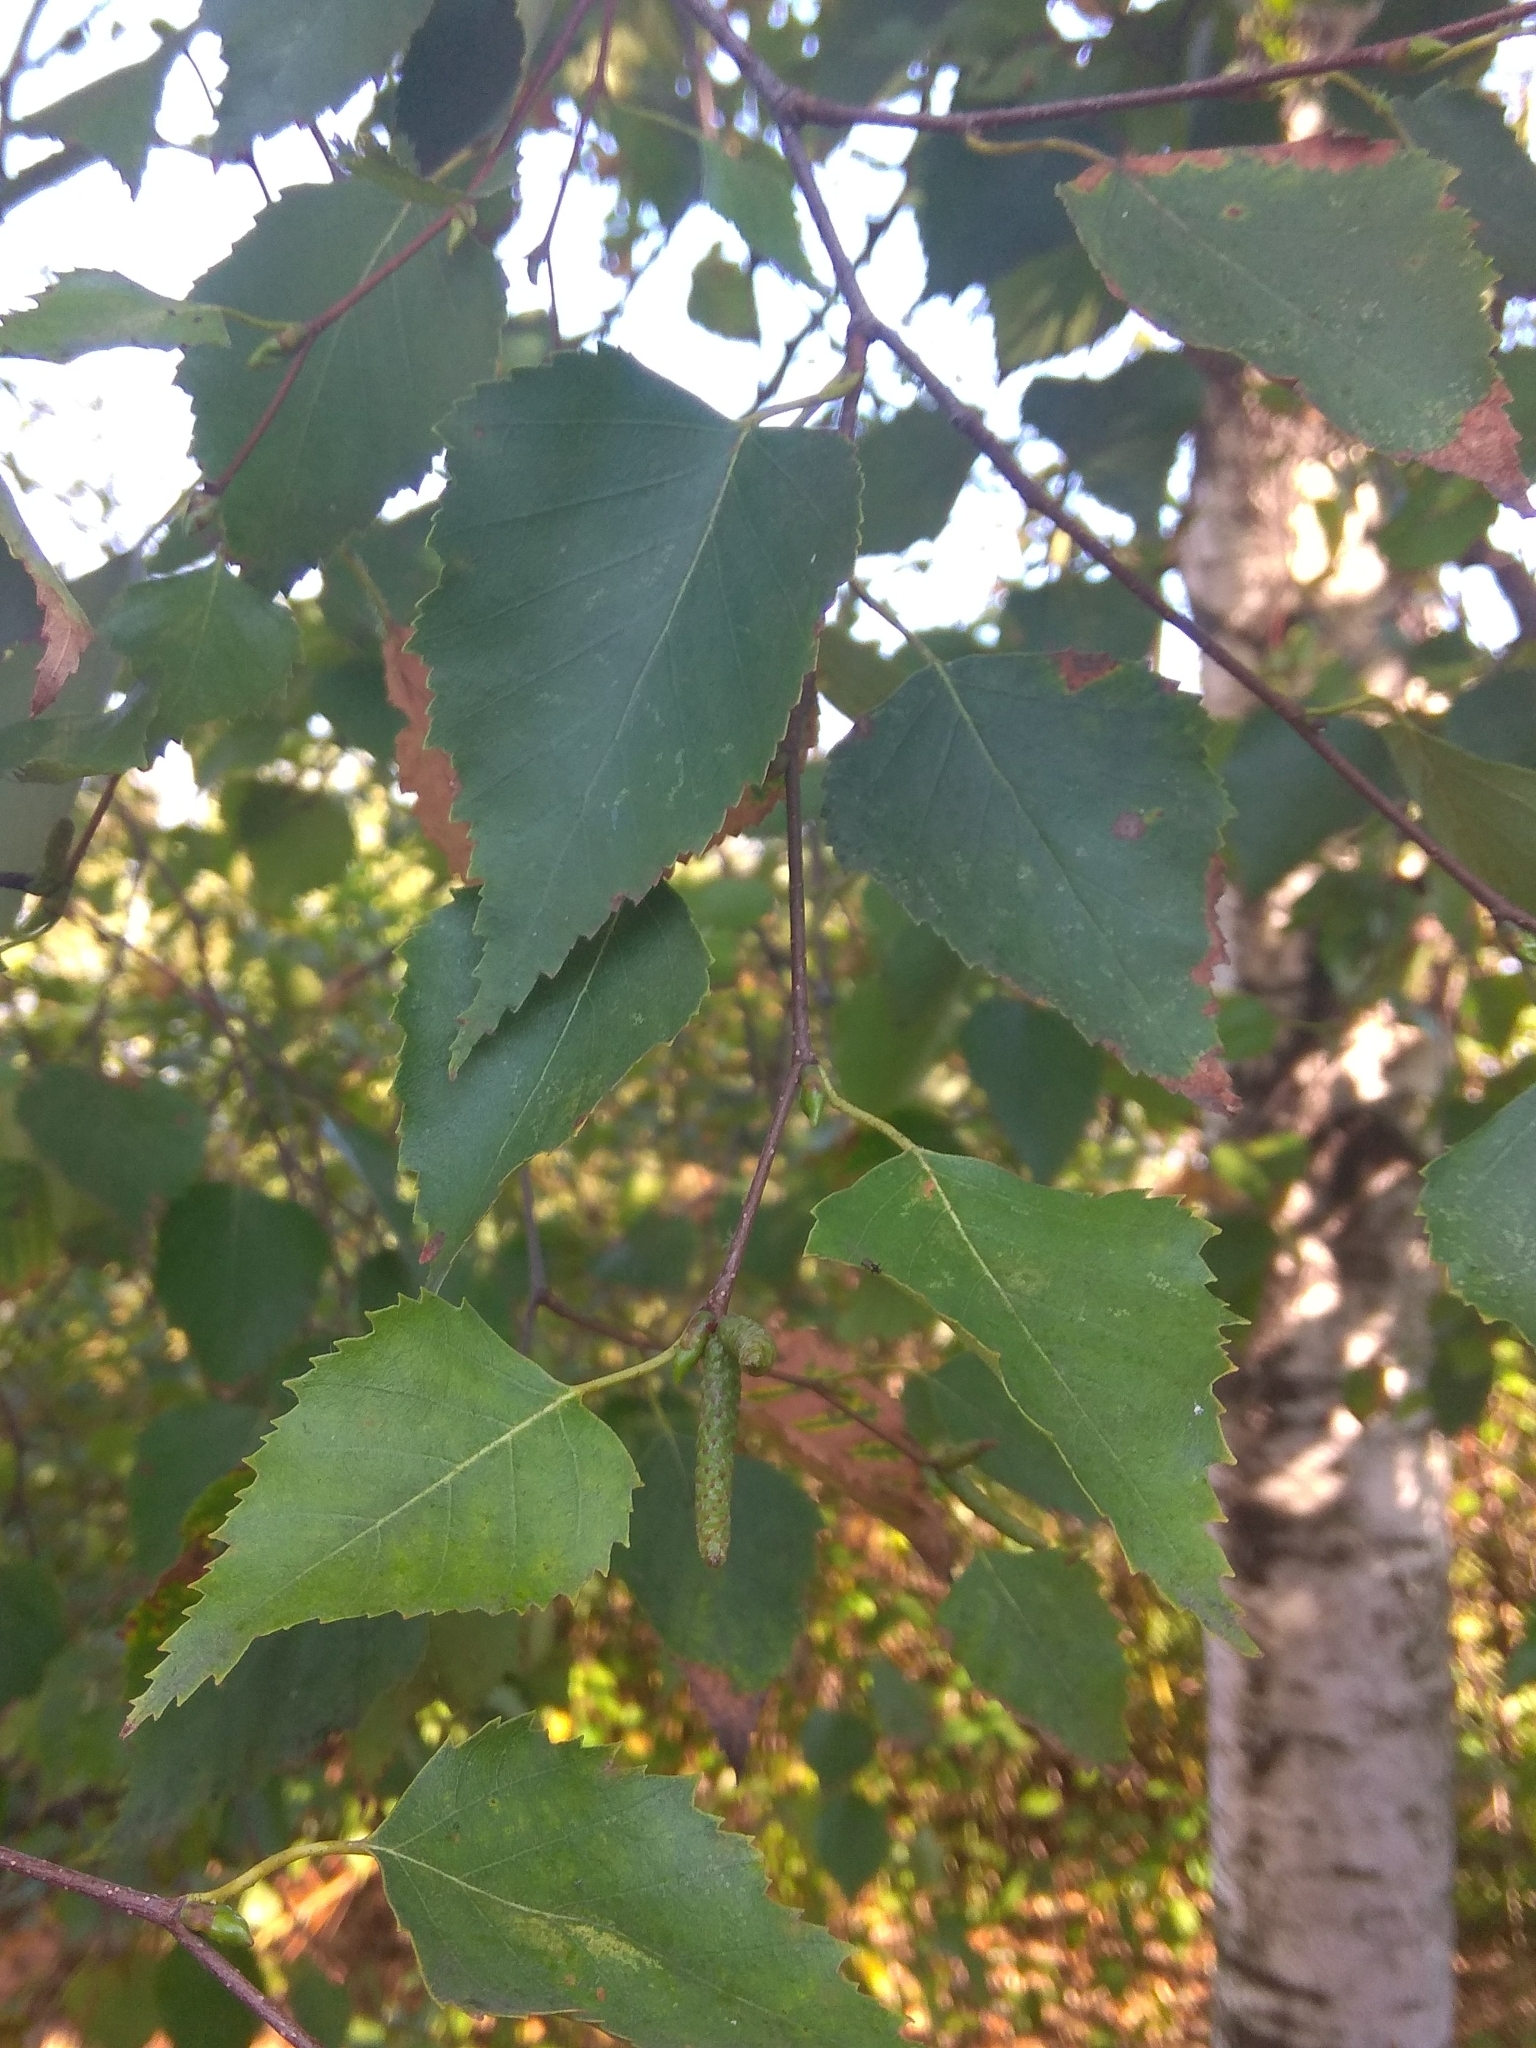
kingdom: Plantae
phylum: Tracheophyta
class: Magnoliopsida
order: Fagales
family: Betulaceae
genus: Betula
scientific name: Betula pendula
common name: Silver birch
